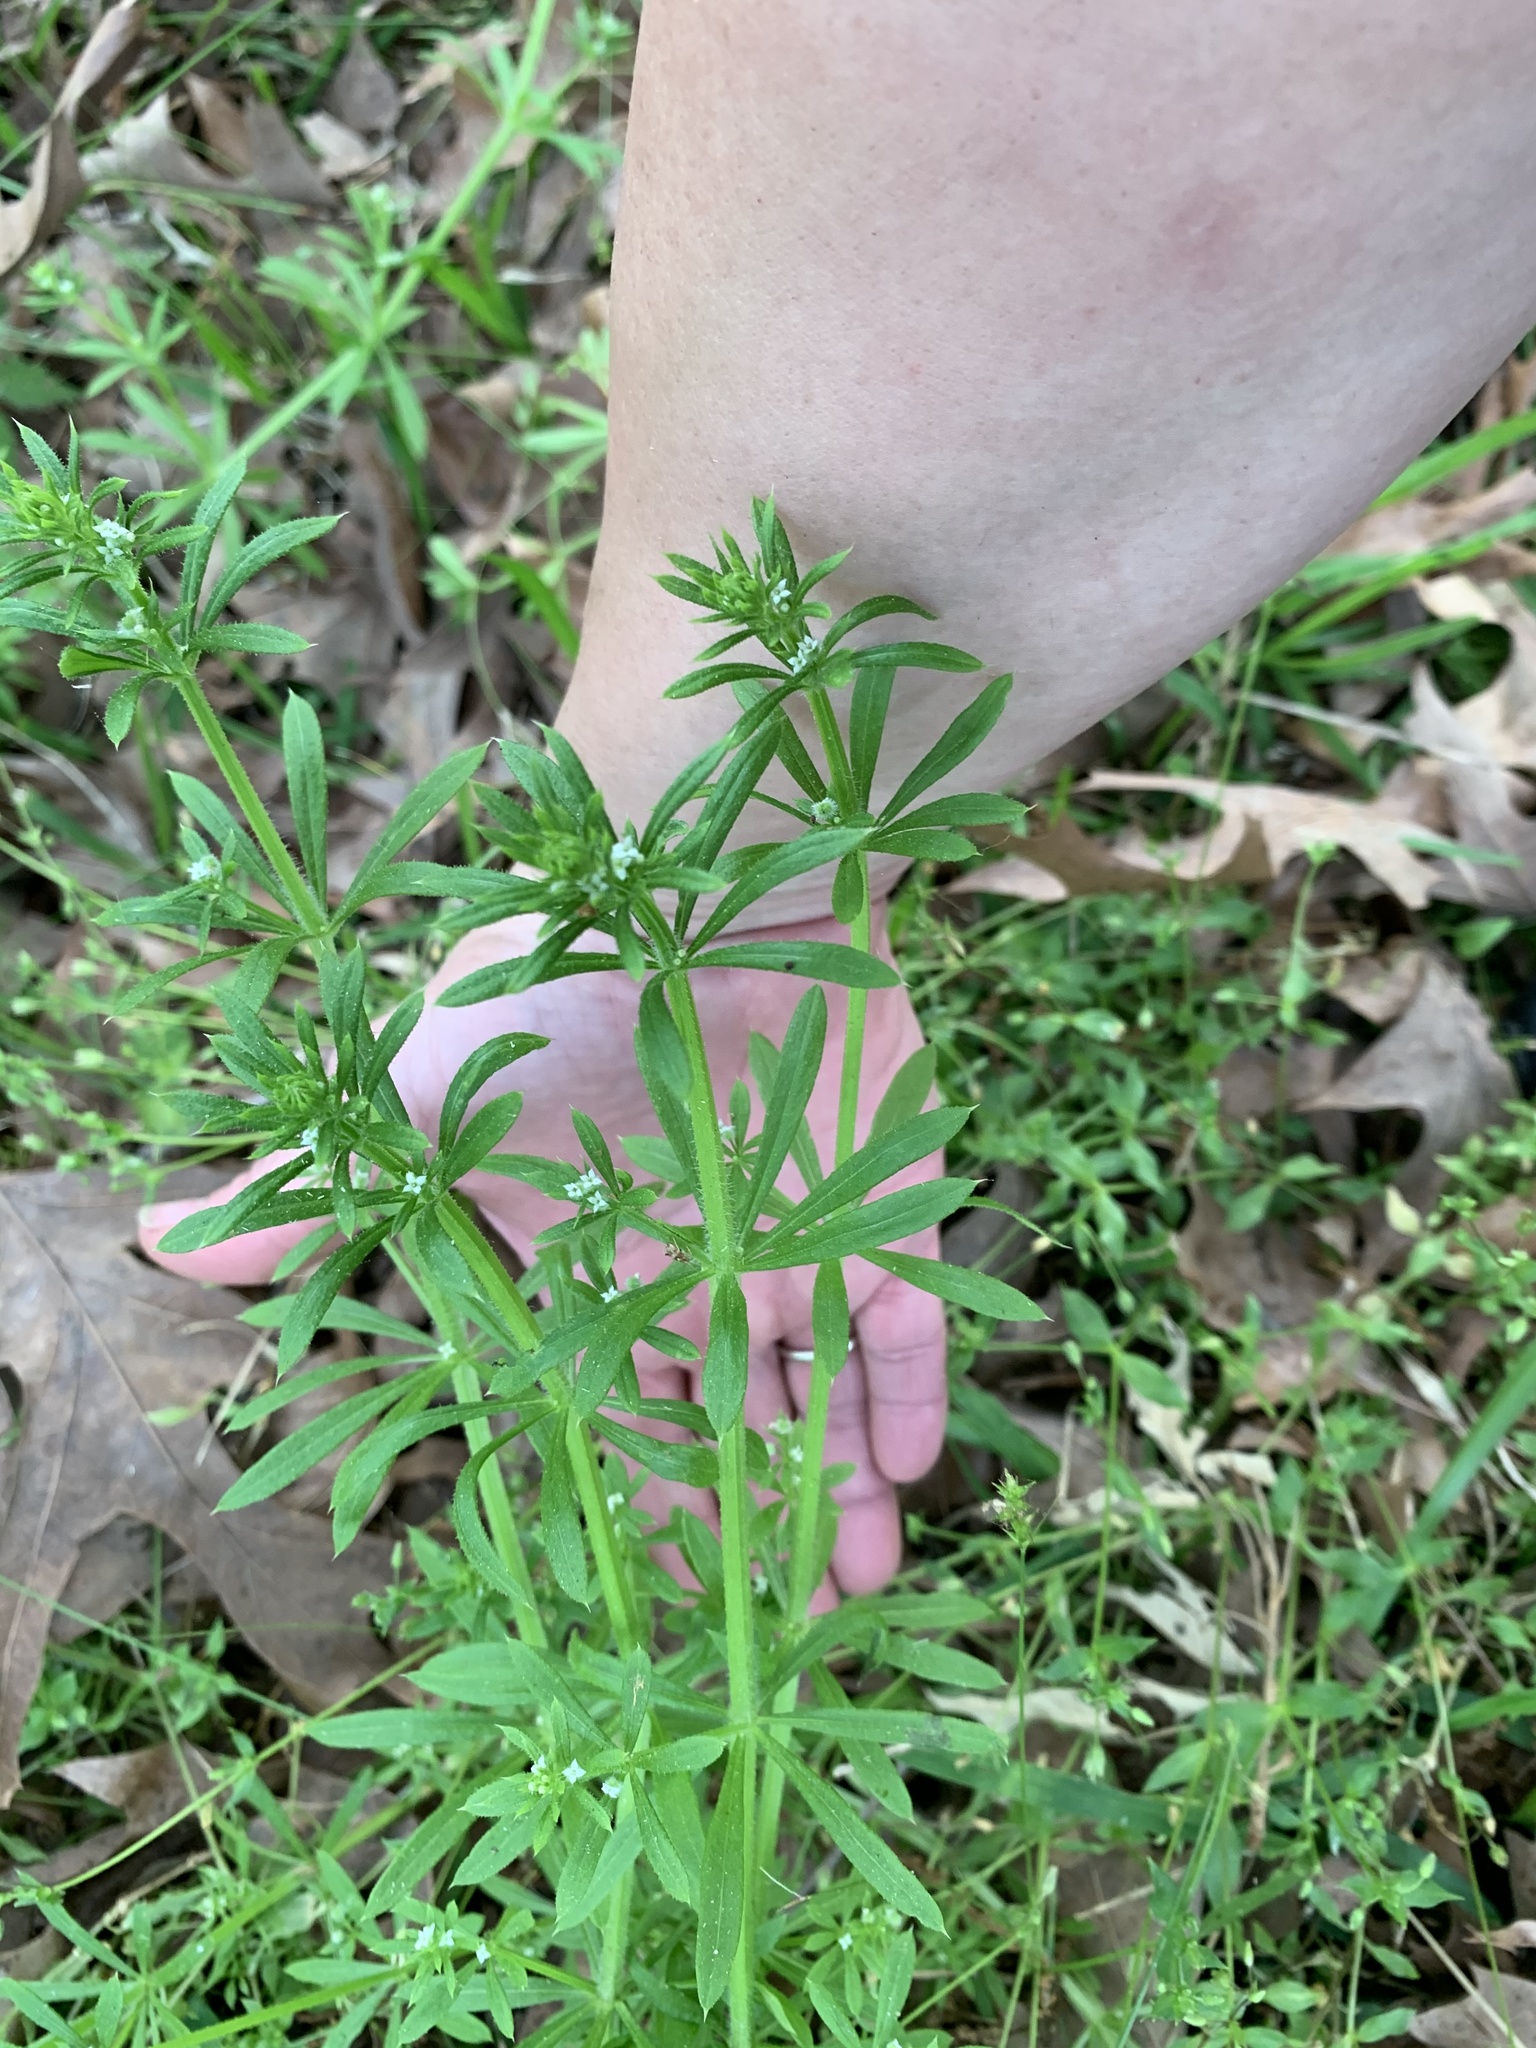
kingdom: Plantae
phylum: Tracheophyta
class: Magnoliopsida
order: Gentianales
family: Rubiaceae
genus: Galium
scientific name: Galium aparine
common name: Cleavers
